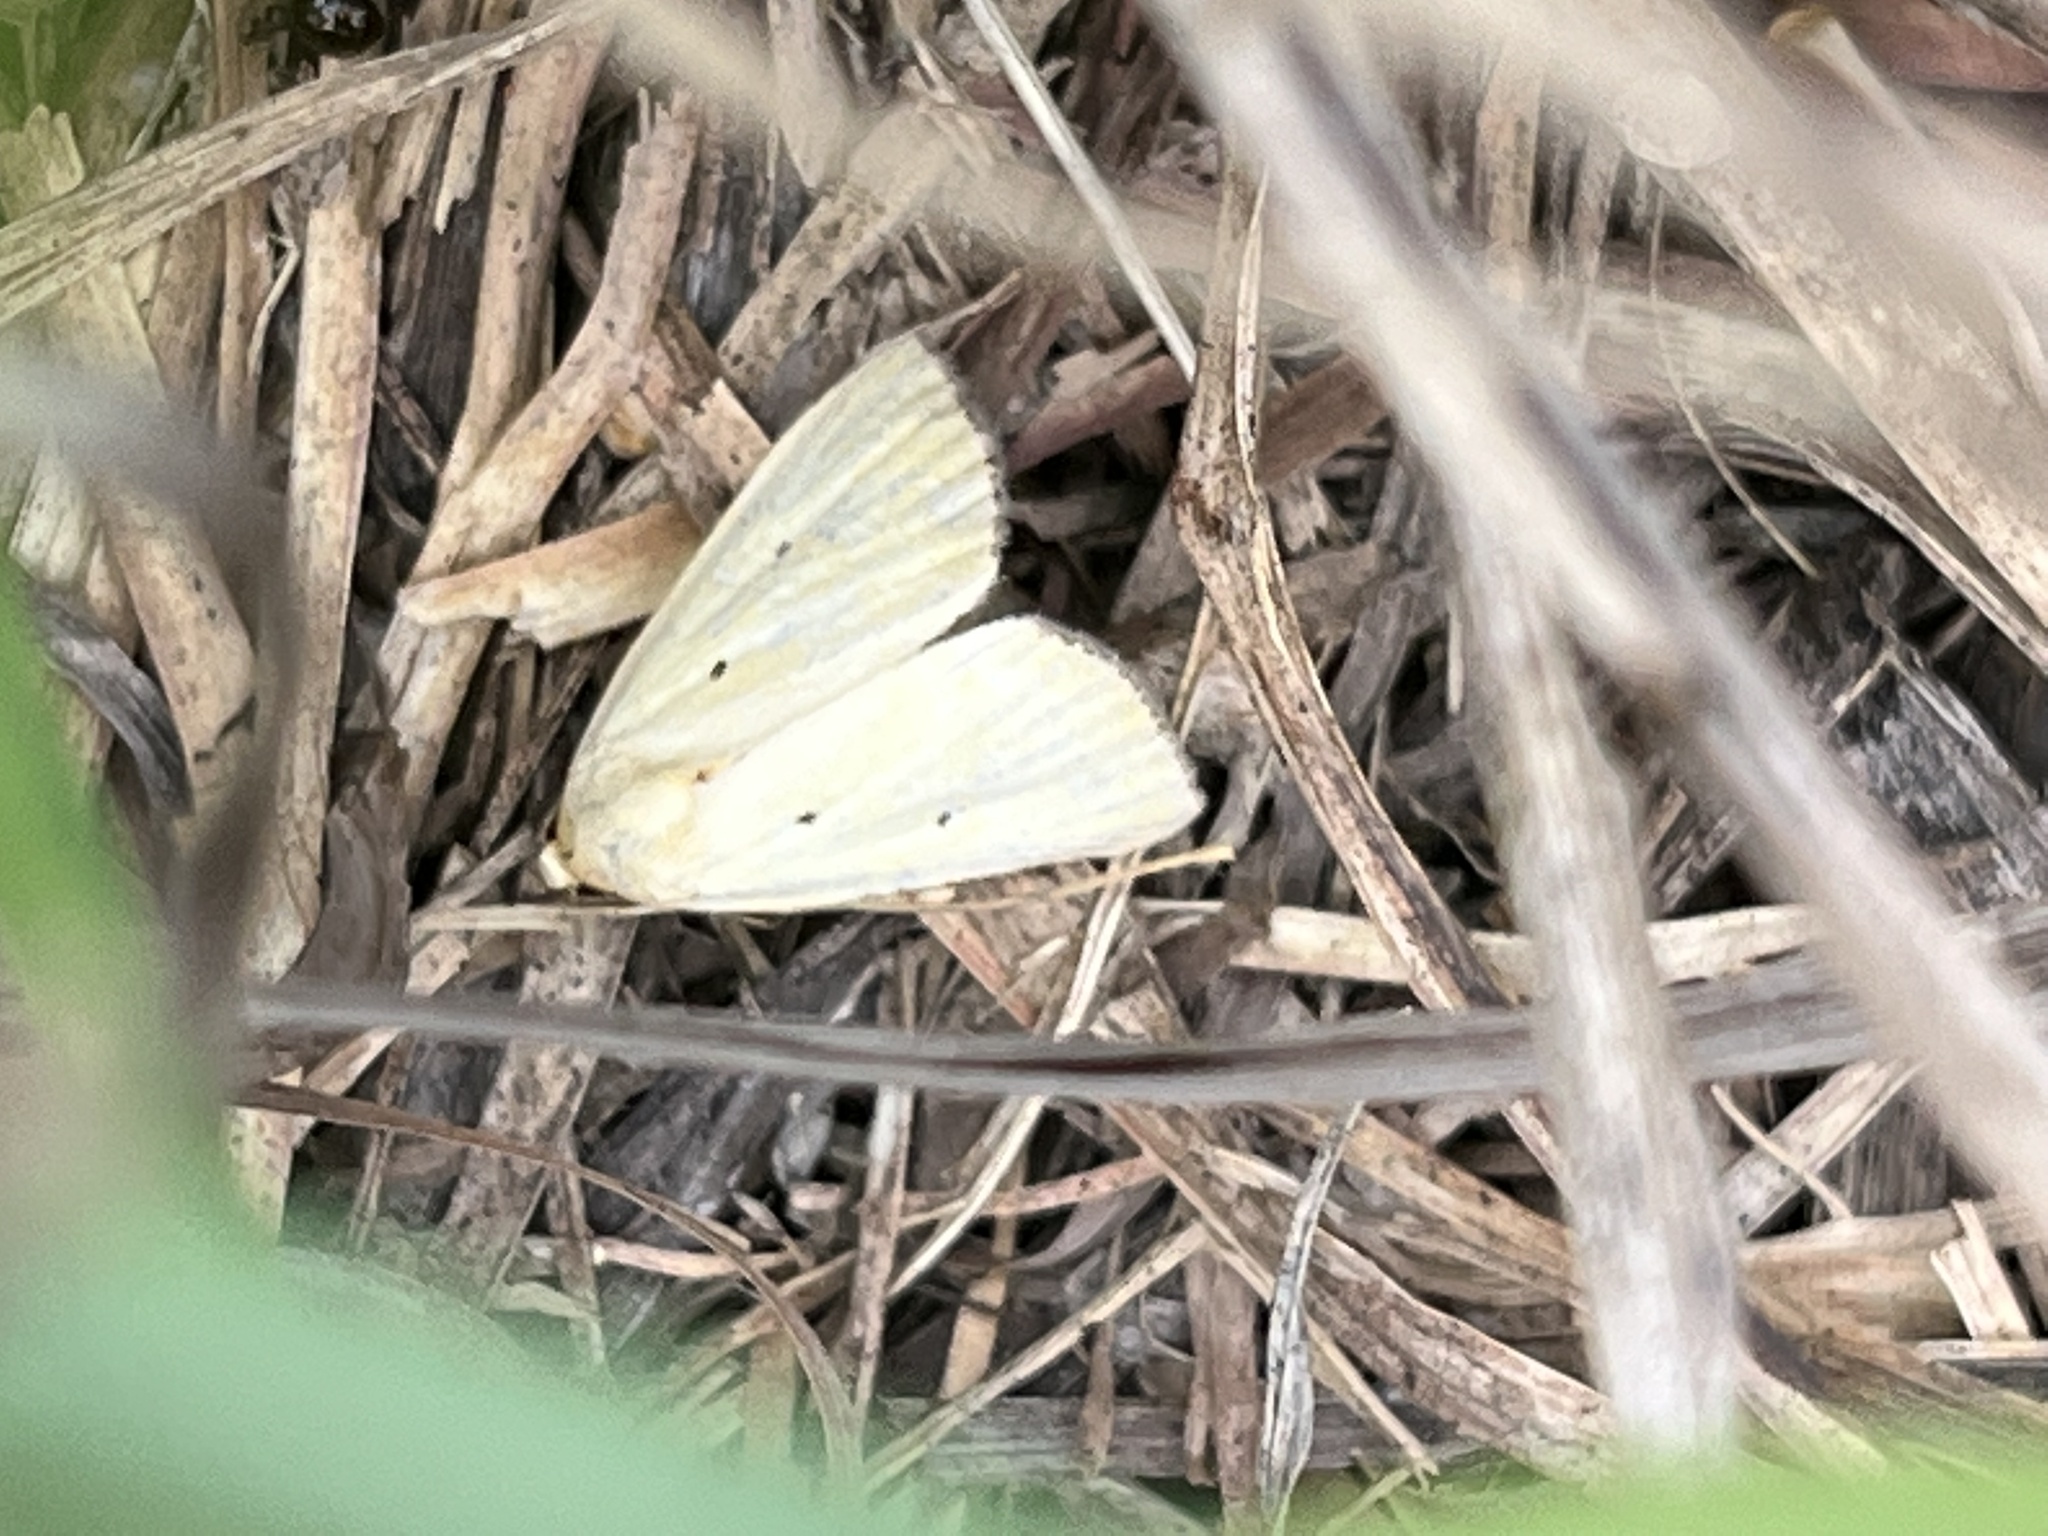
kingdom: Animalia
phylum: Arthropoda
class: Insecta
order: Lepidoptera
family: Noctuidae
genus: Marimatha
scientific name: Marimatha nigrofimbria
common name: Black-bordered lemon moth
